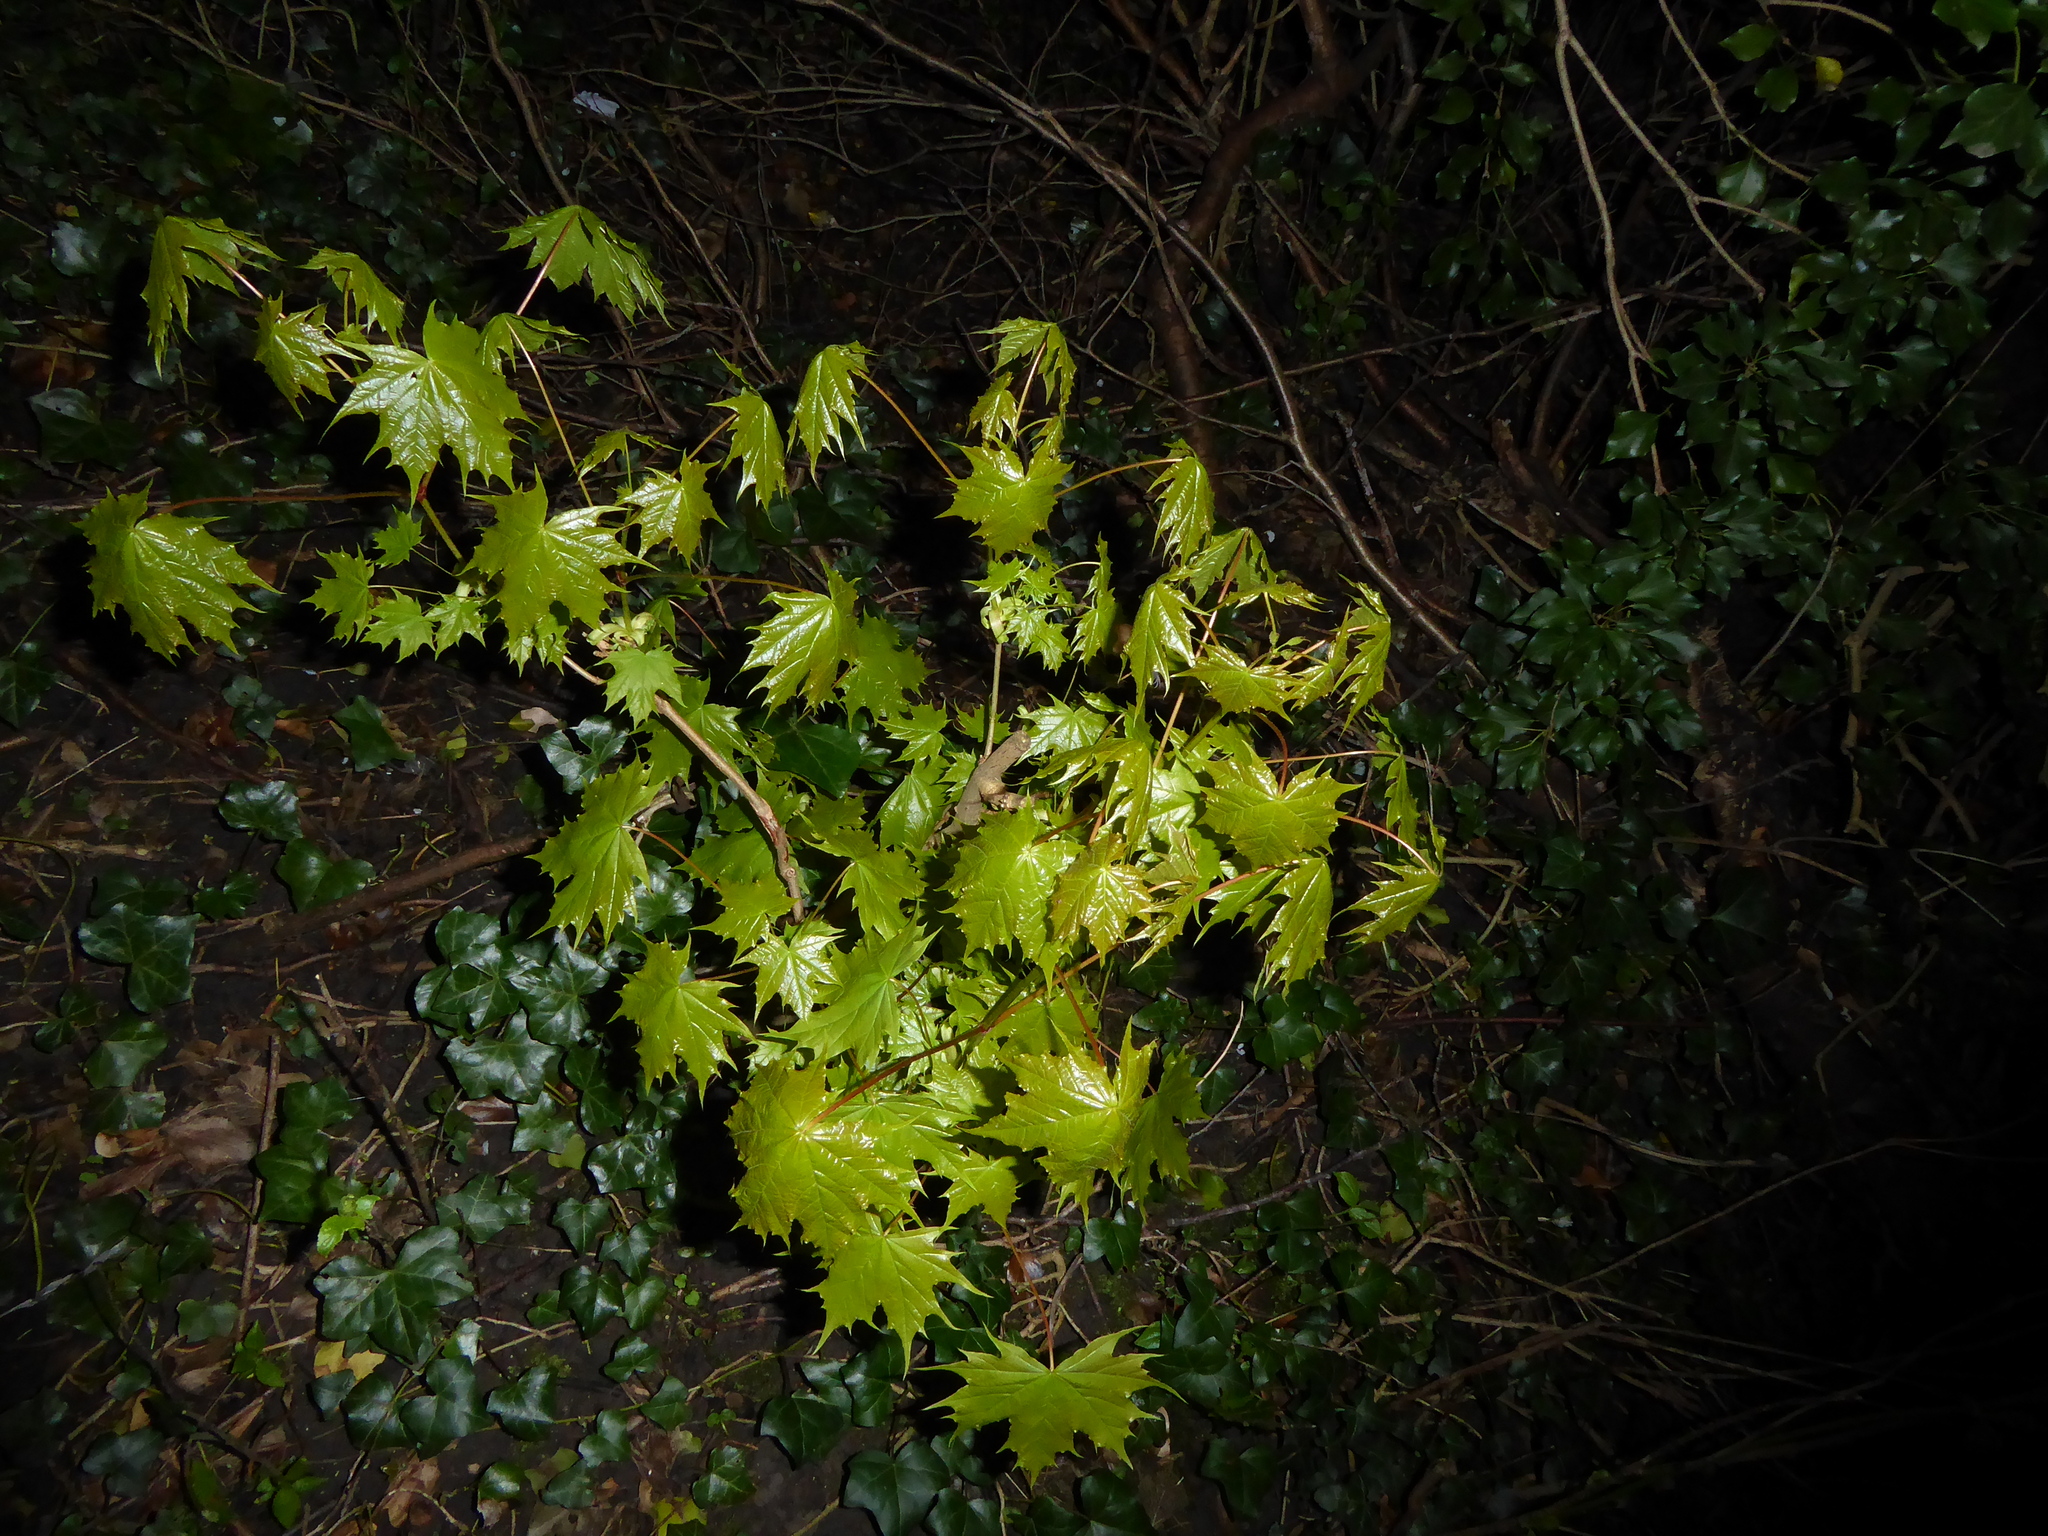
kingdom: Plantae
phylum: Tracheophyta
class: Magnoliopsida
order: Sapindales
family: Sapindaceae
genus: Acer
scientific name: Acer platanoides
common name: Norway maple
